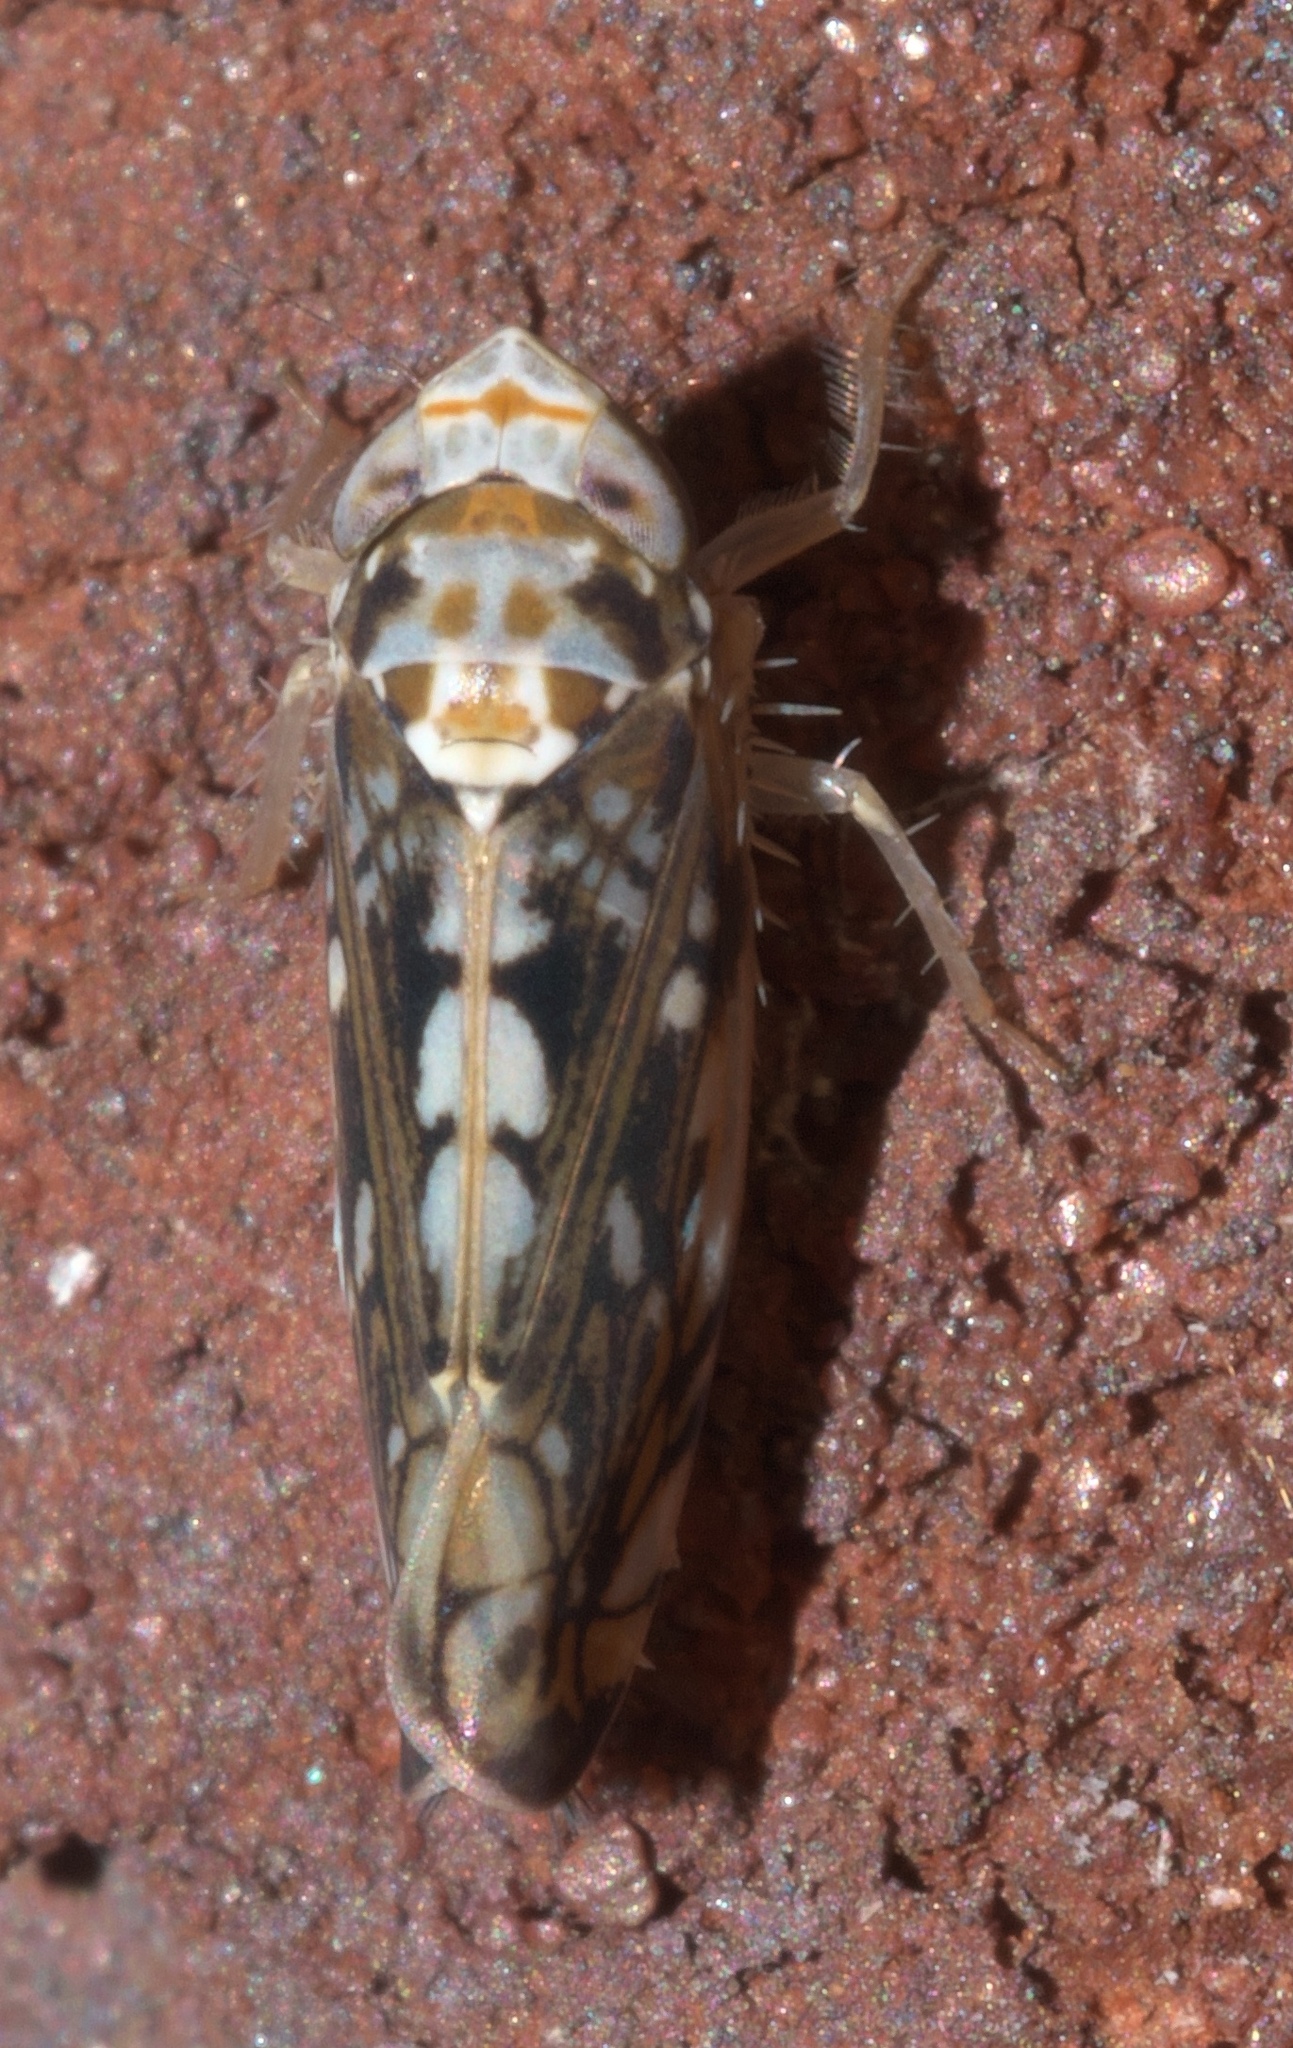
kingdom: Animalia
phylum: Arthropoda
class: Insecta
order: Hemiptera
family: Cicadellidae
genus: Scaphoideus
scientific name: Scaphoideus melanotus
